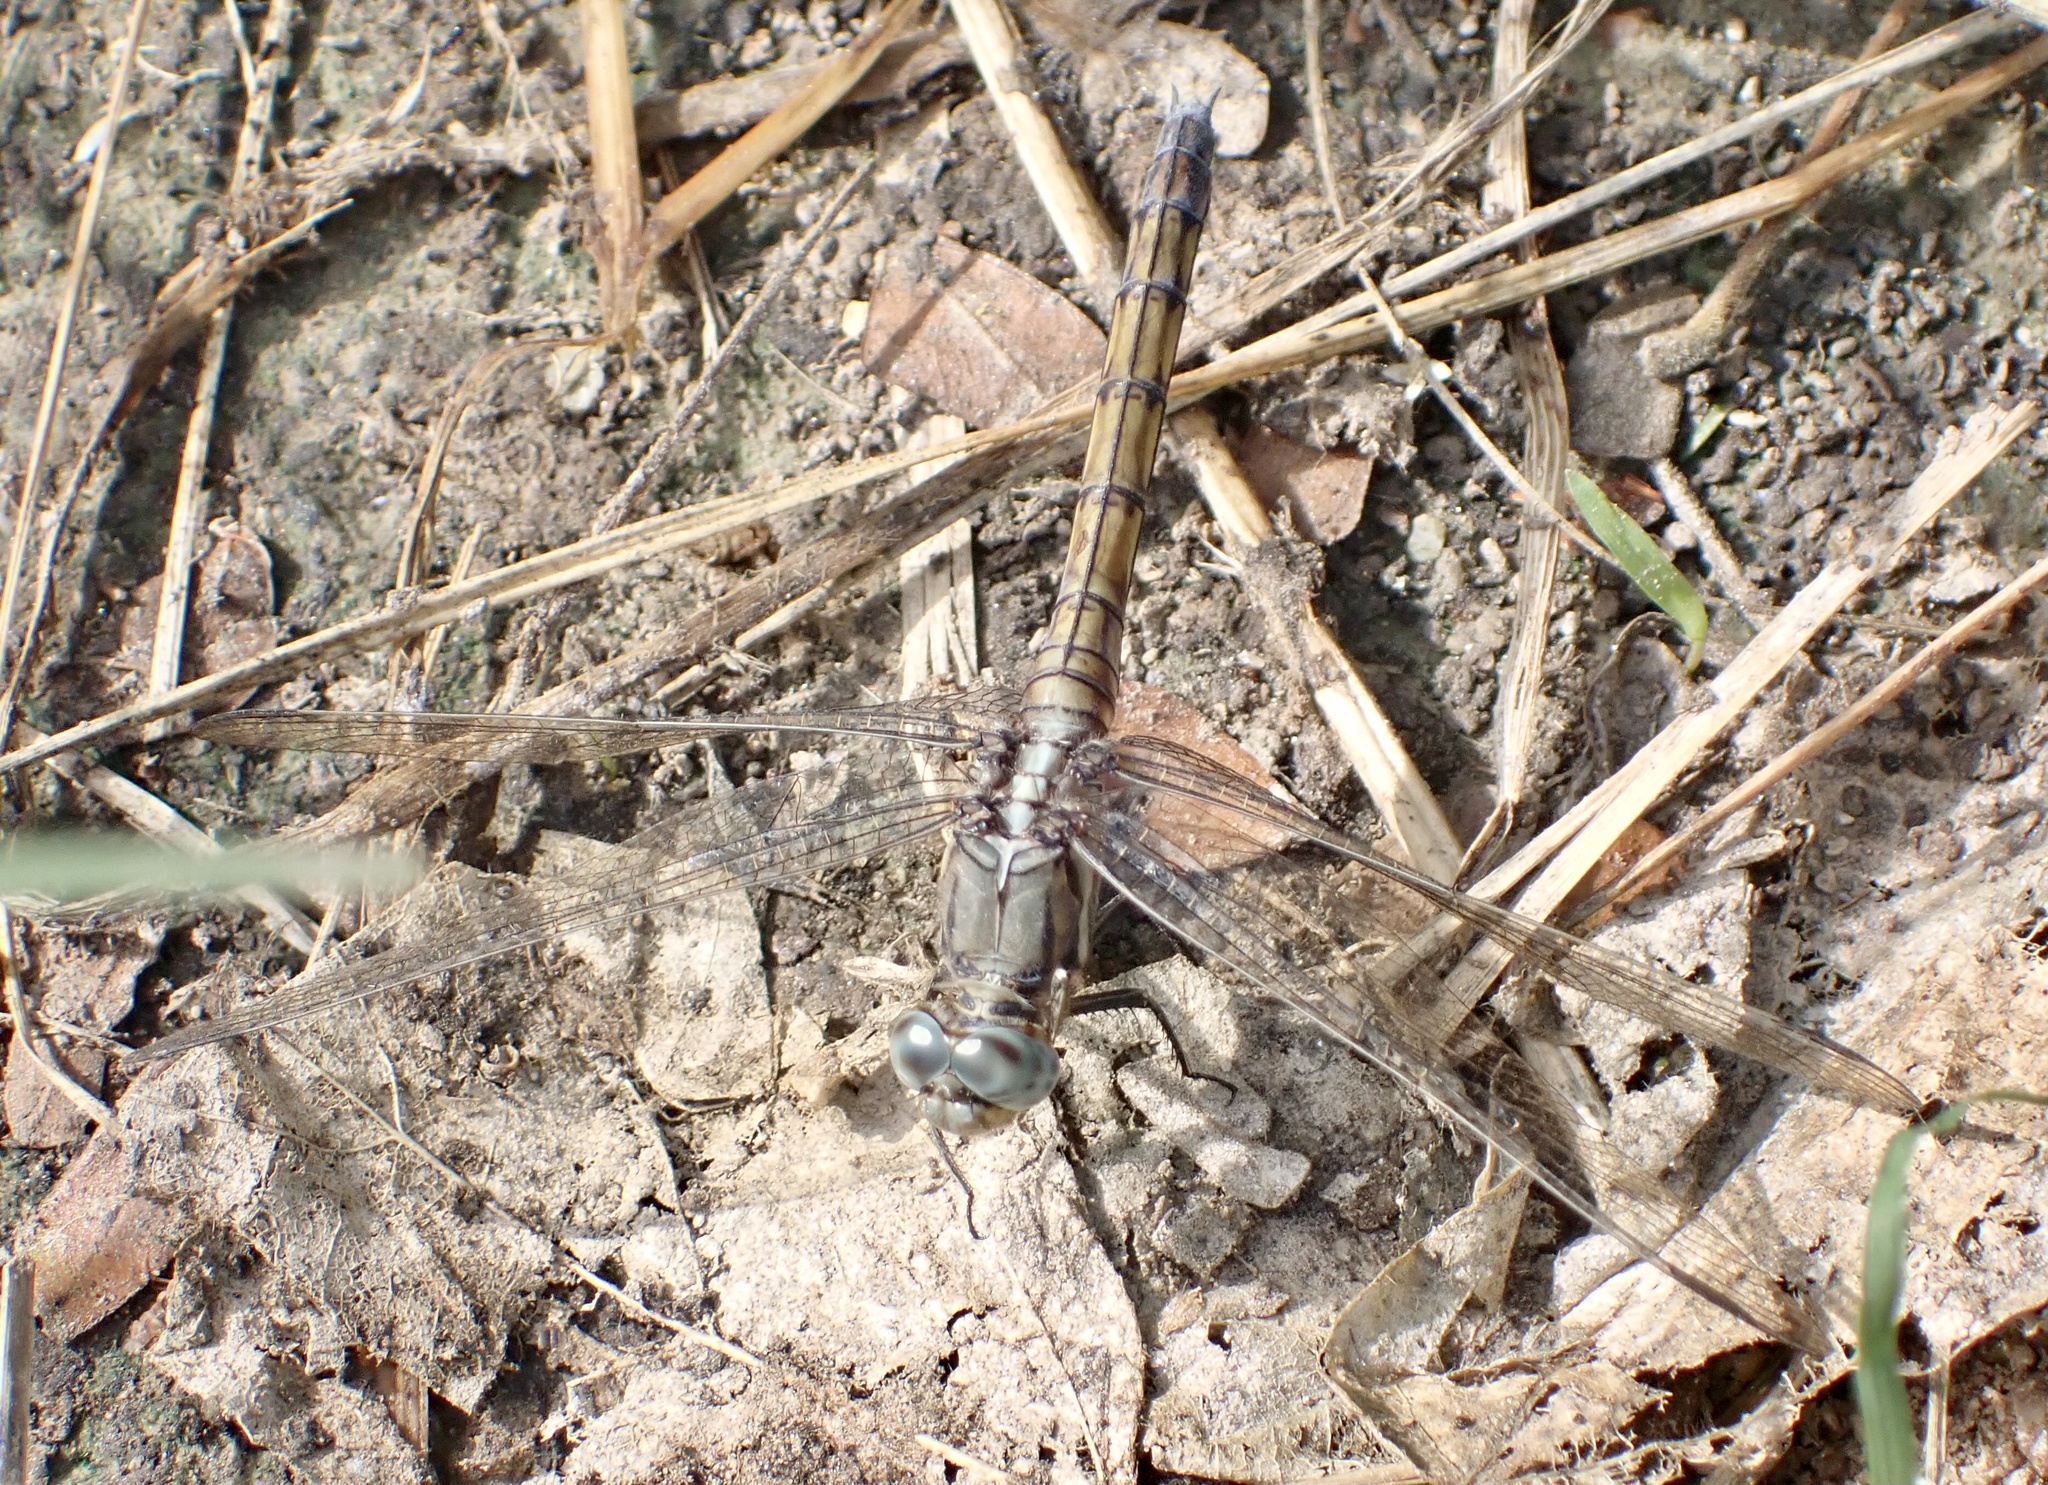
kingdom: Animalia
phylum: Arthropoda
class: Insecta
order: Odonata
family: Libellulidae
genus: Orthetrum
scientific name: Orthetrum chrysostigma
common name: Epaulet skimmer
